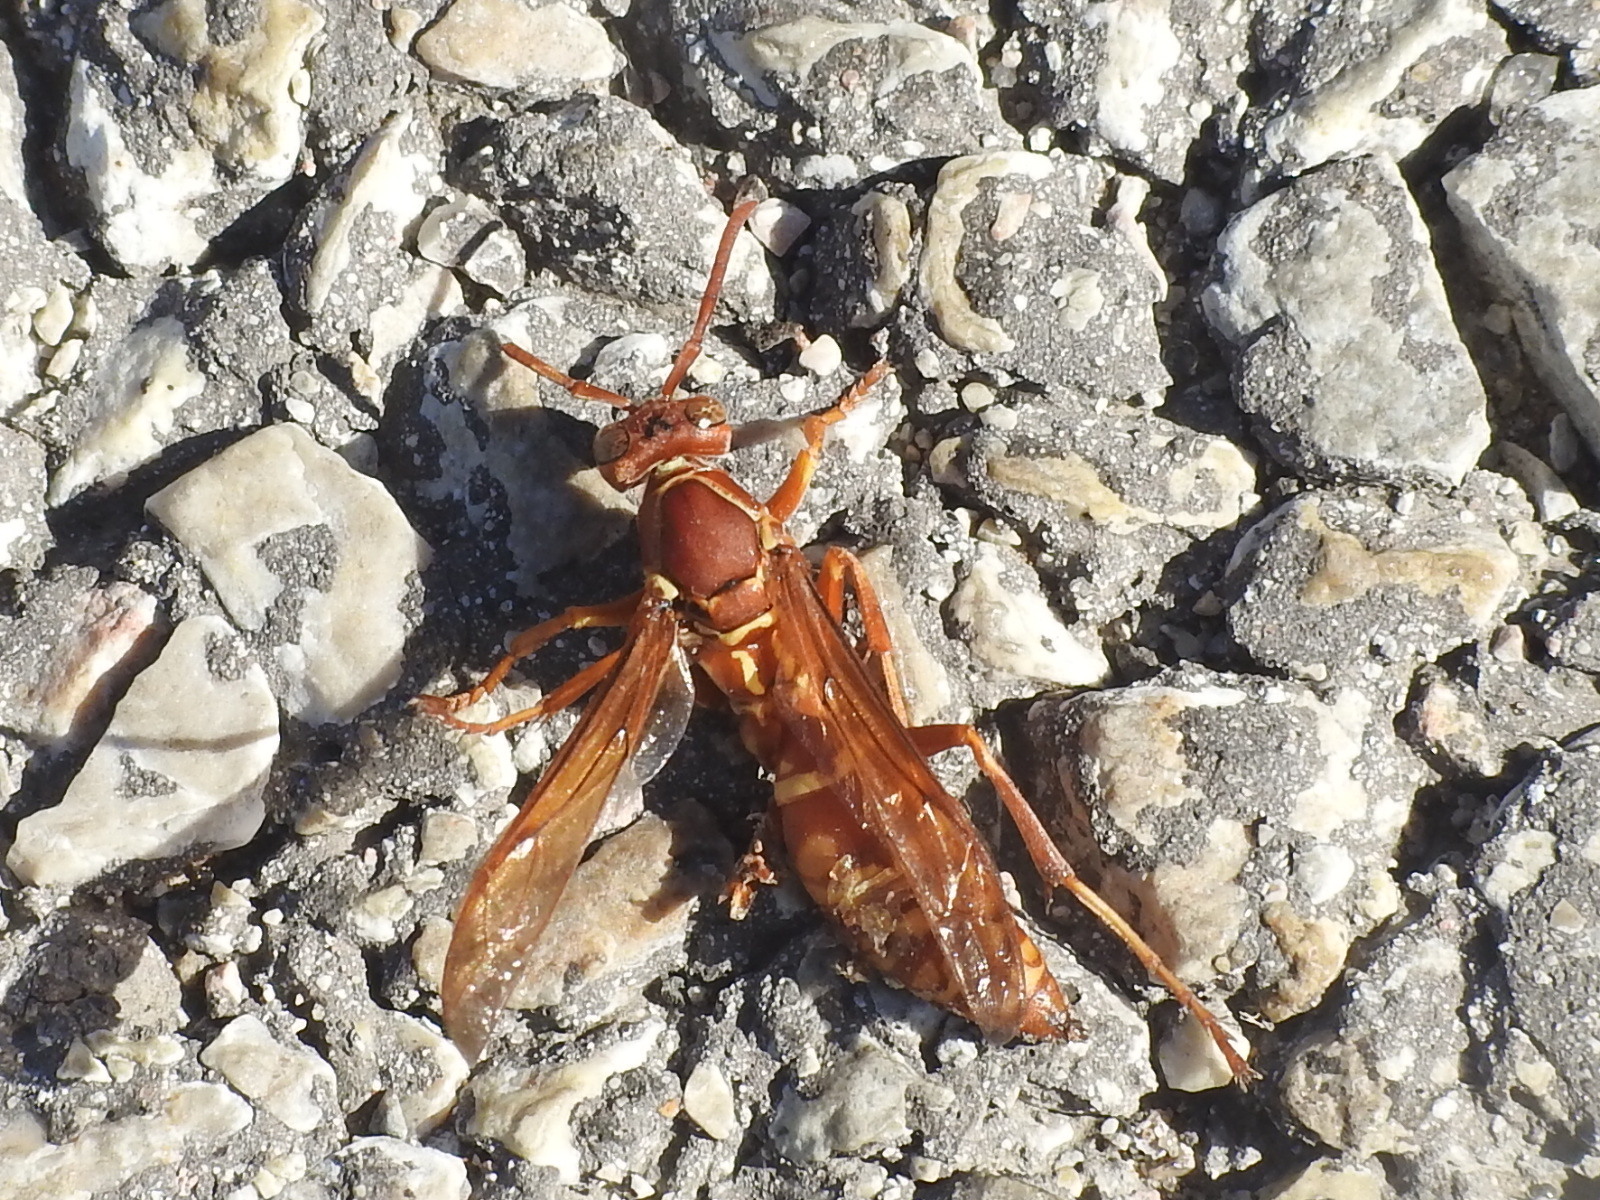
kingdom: Animalia
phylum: Arthropoda
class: Insecta
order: Hymenoptera
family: Eumenidae
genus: Polistes
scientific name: Polistes apachus
